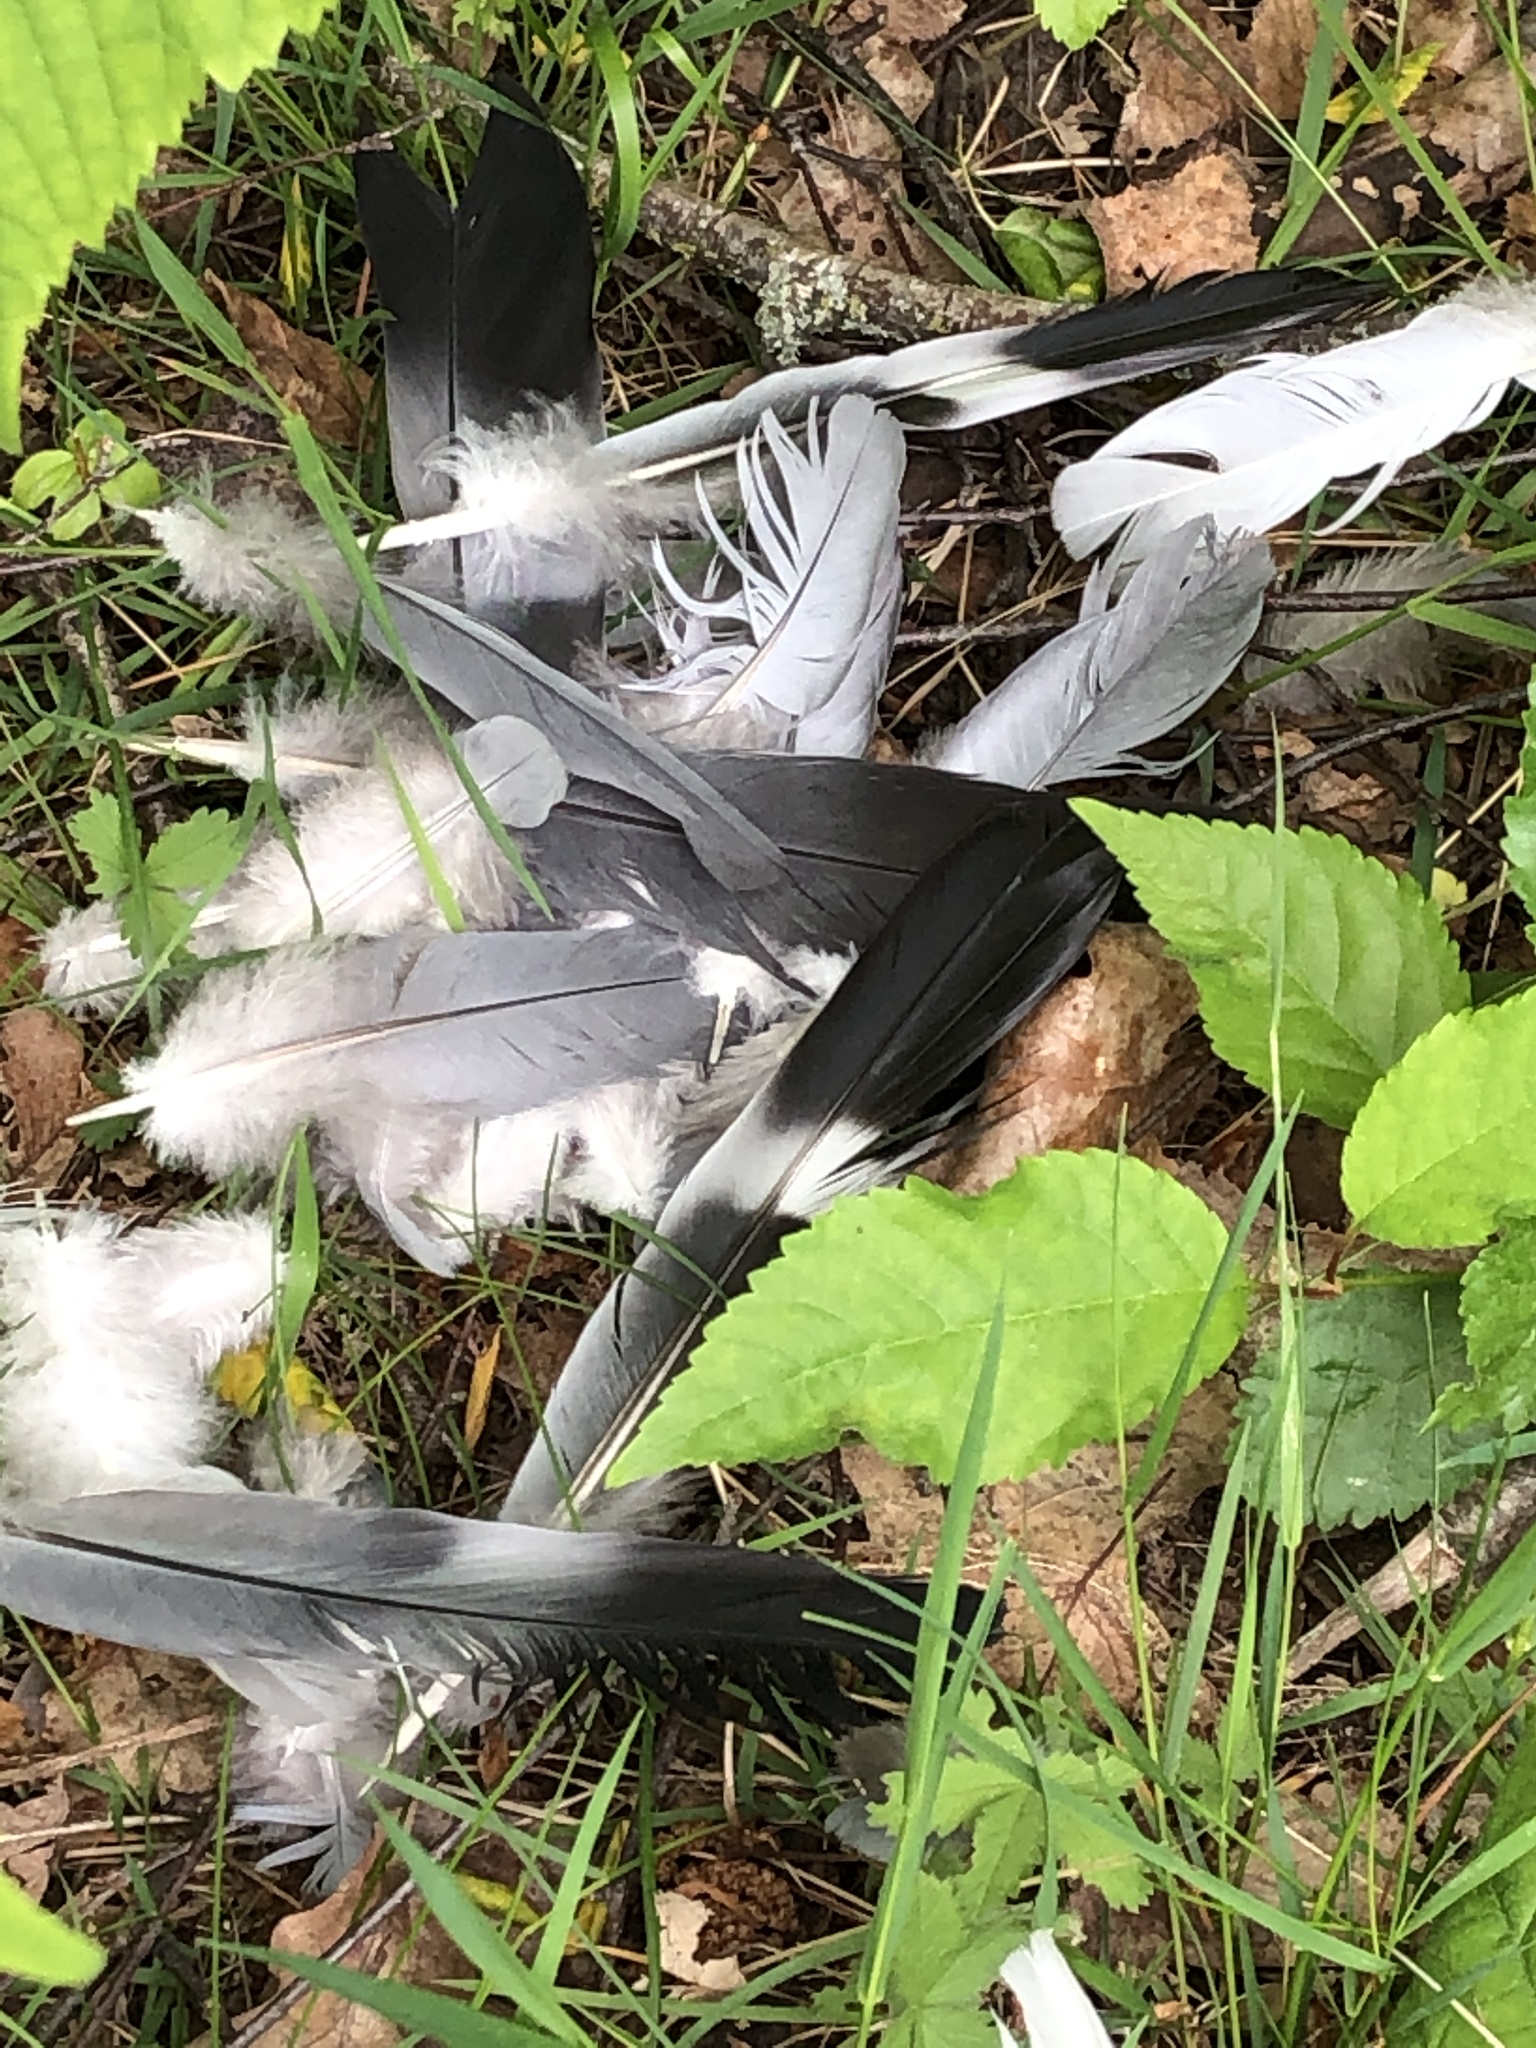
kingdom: Animalia
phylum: Chordata
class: Aves
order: Columbiformes
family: Columbidae
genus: Columba
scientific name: Columba palumbus
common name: Common wood pigeon
